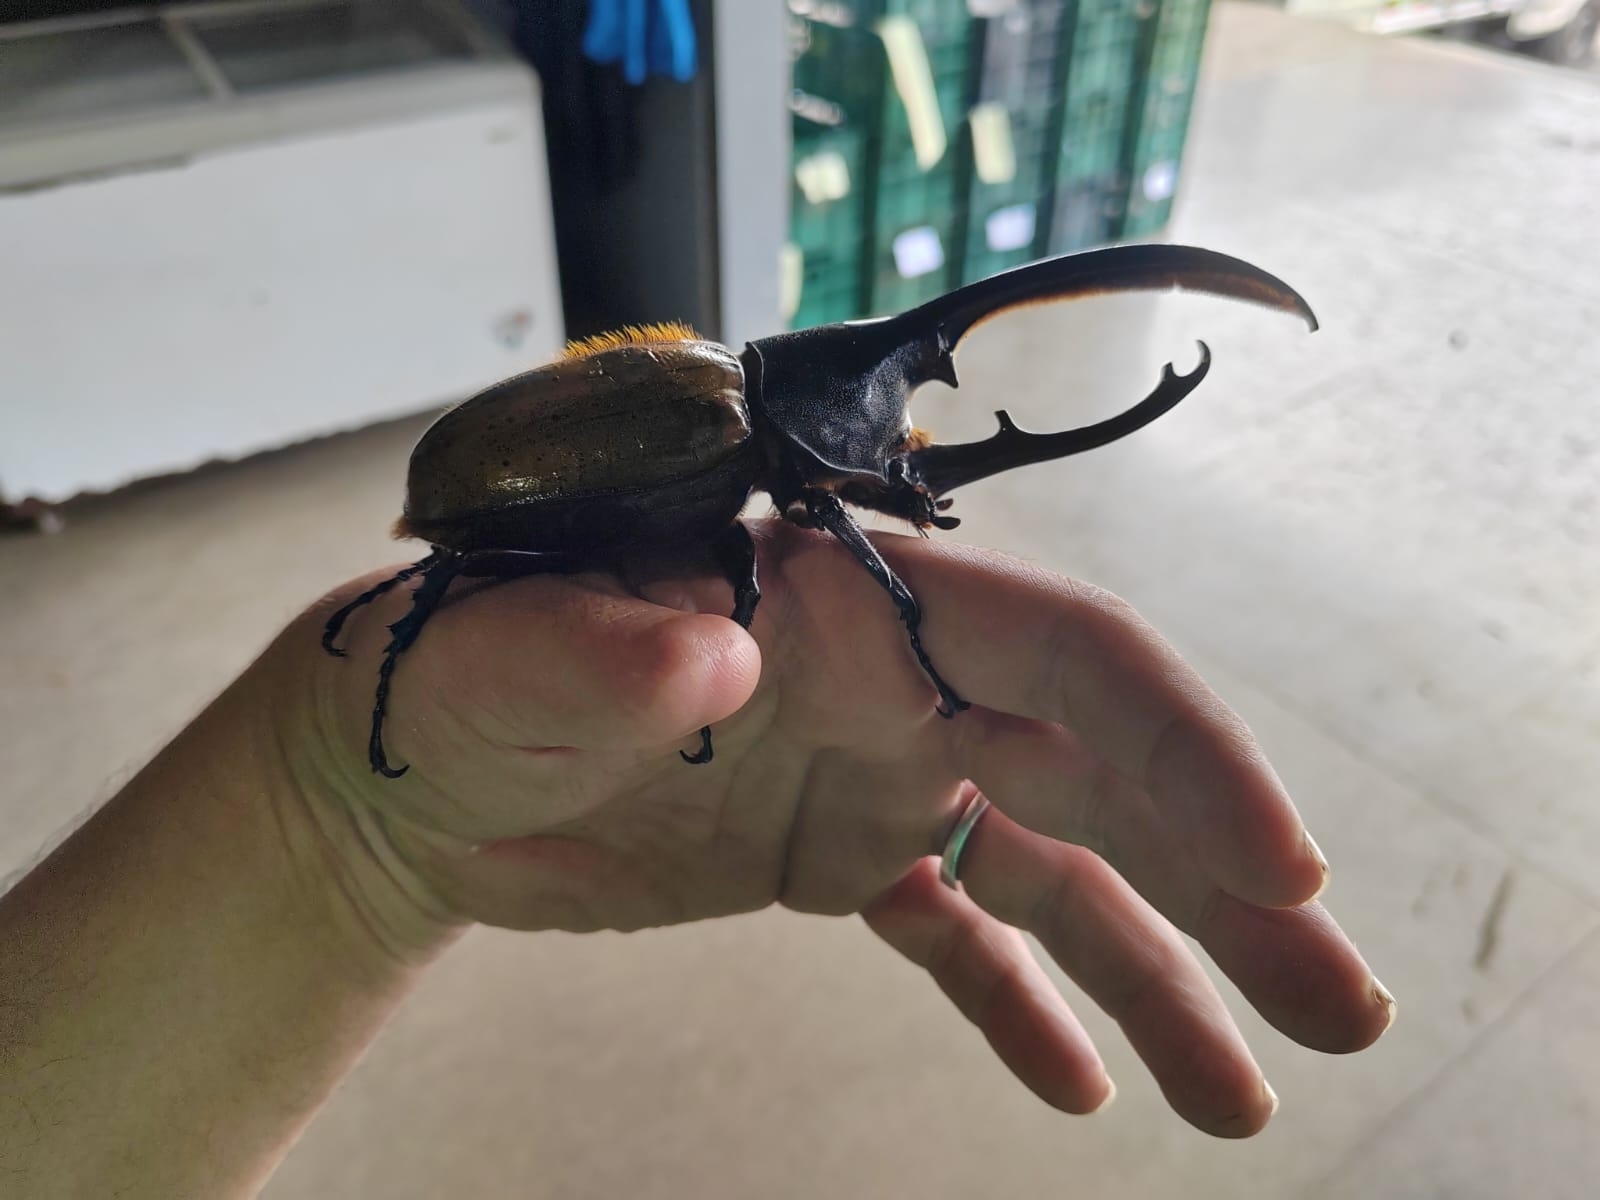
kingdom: Animalia
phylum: Arthropoda
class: Insecta
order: Coleoptera
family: Scarabaeidae
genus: Dynastes
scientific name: Dynastes
